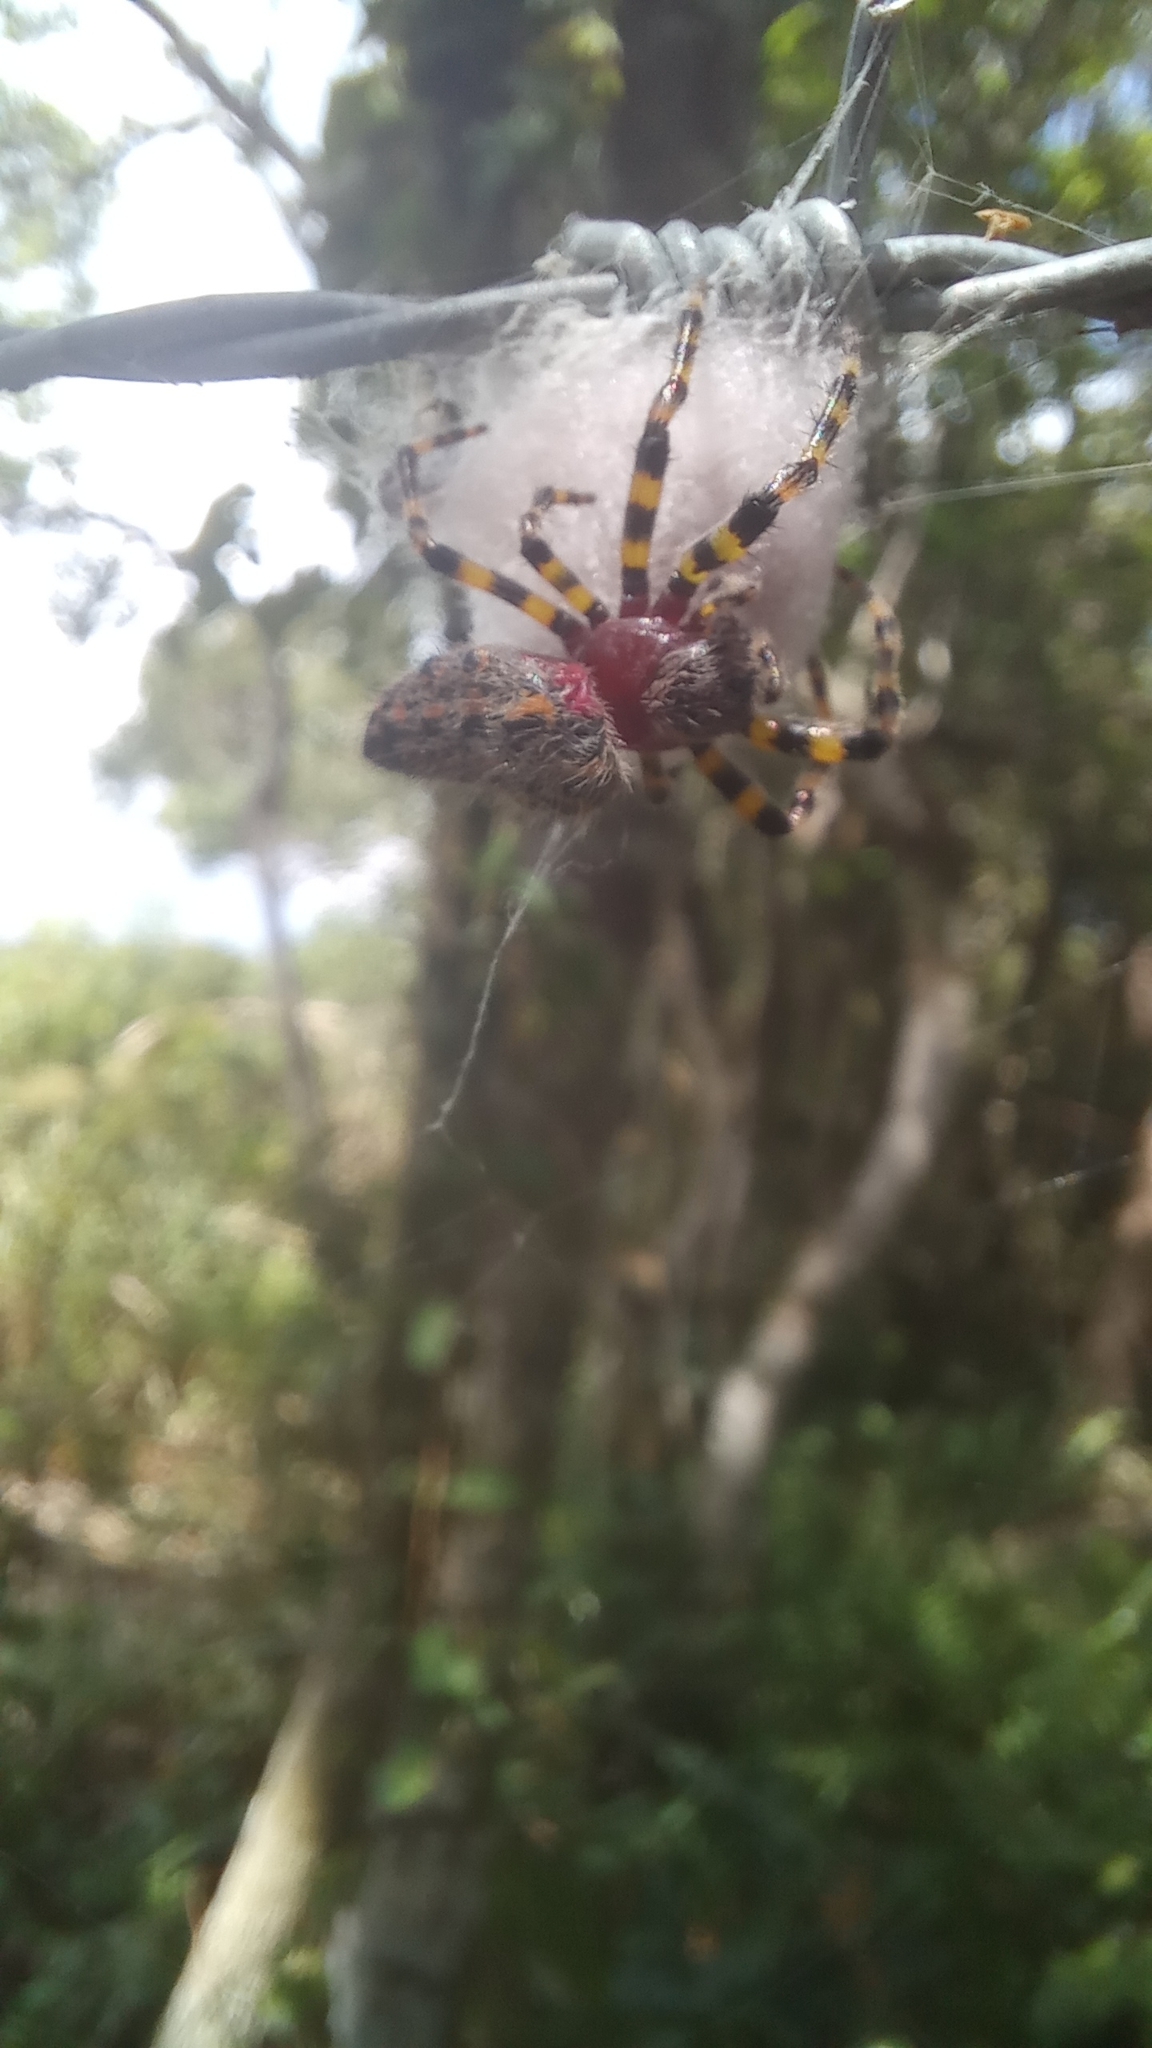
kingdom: Animalia
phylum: Arthropoda
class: Arachnida
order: Araneae
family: Araneidae
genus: Alpaida
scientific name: Alpaida alticeps
